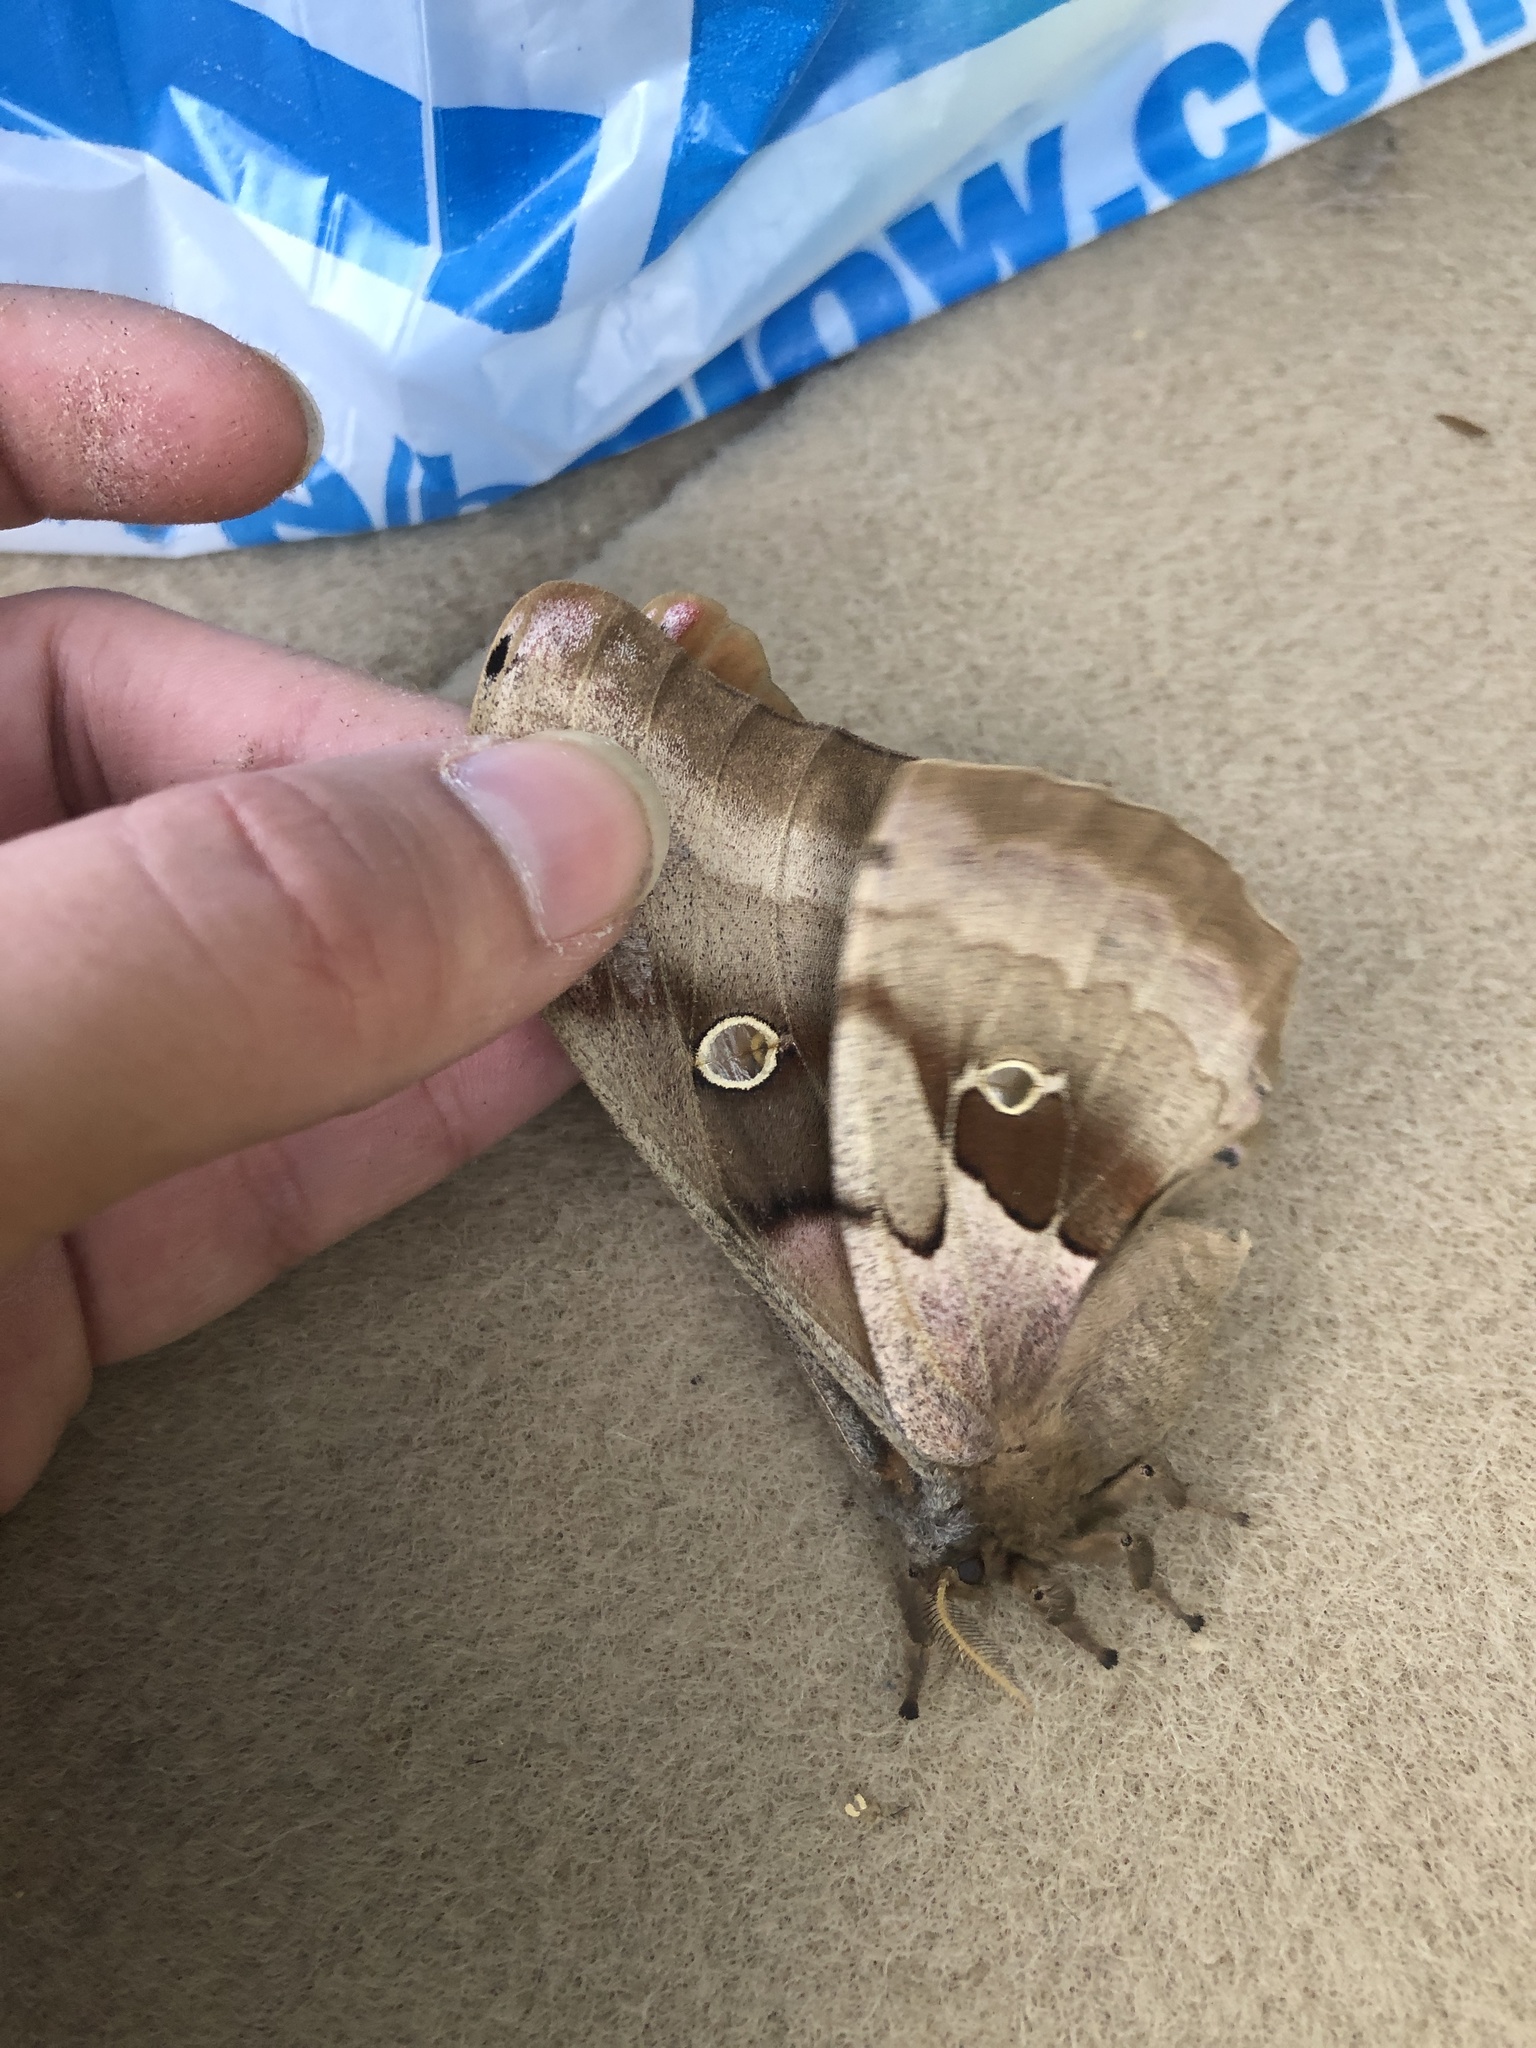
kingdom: Animalia
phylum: Arthropoda
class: Insecta
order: Lepidoptera
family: Saturniidae
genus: Antheraea
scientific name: Antheraea polyphemus
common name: Polyphemus moth
